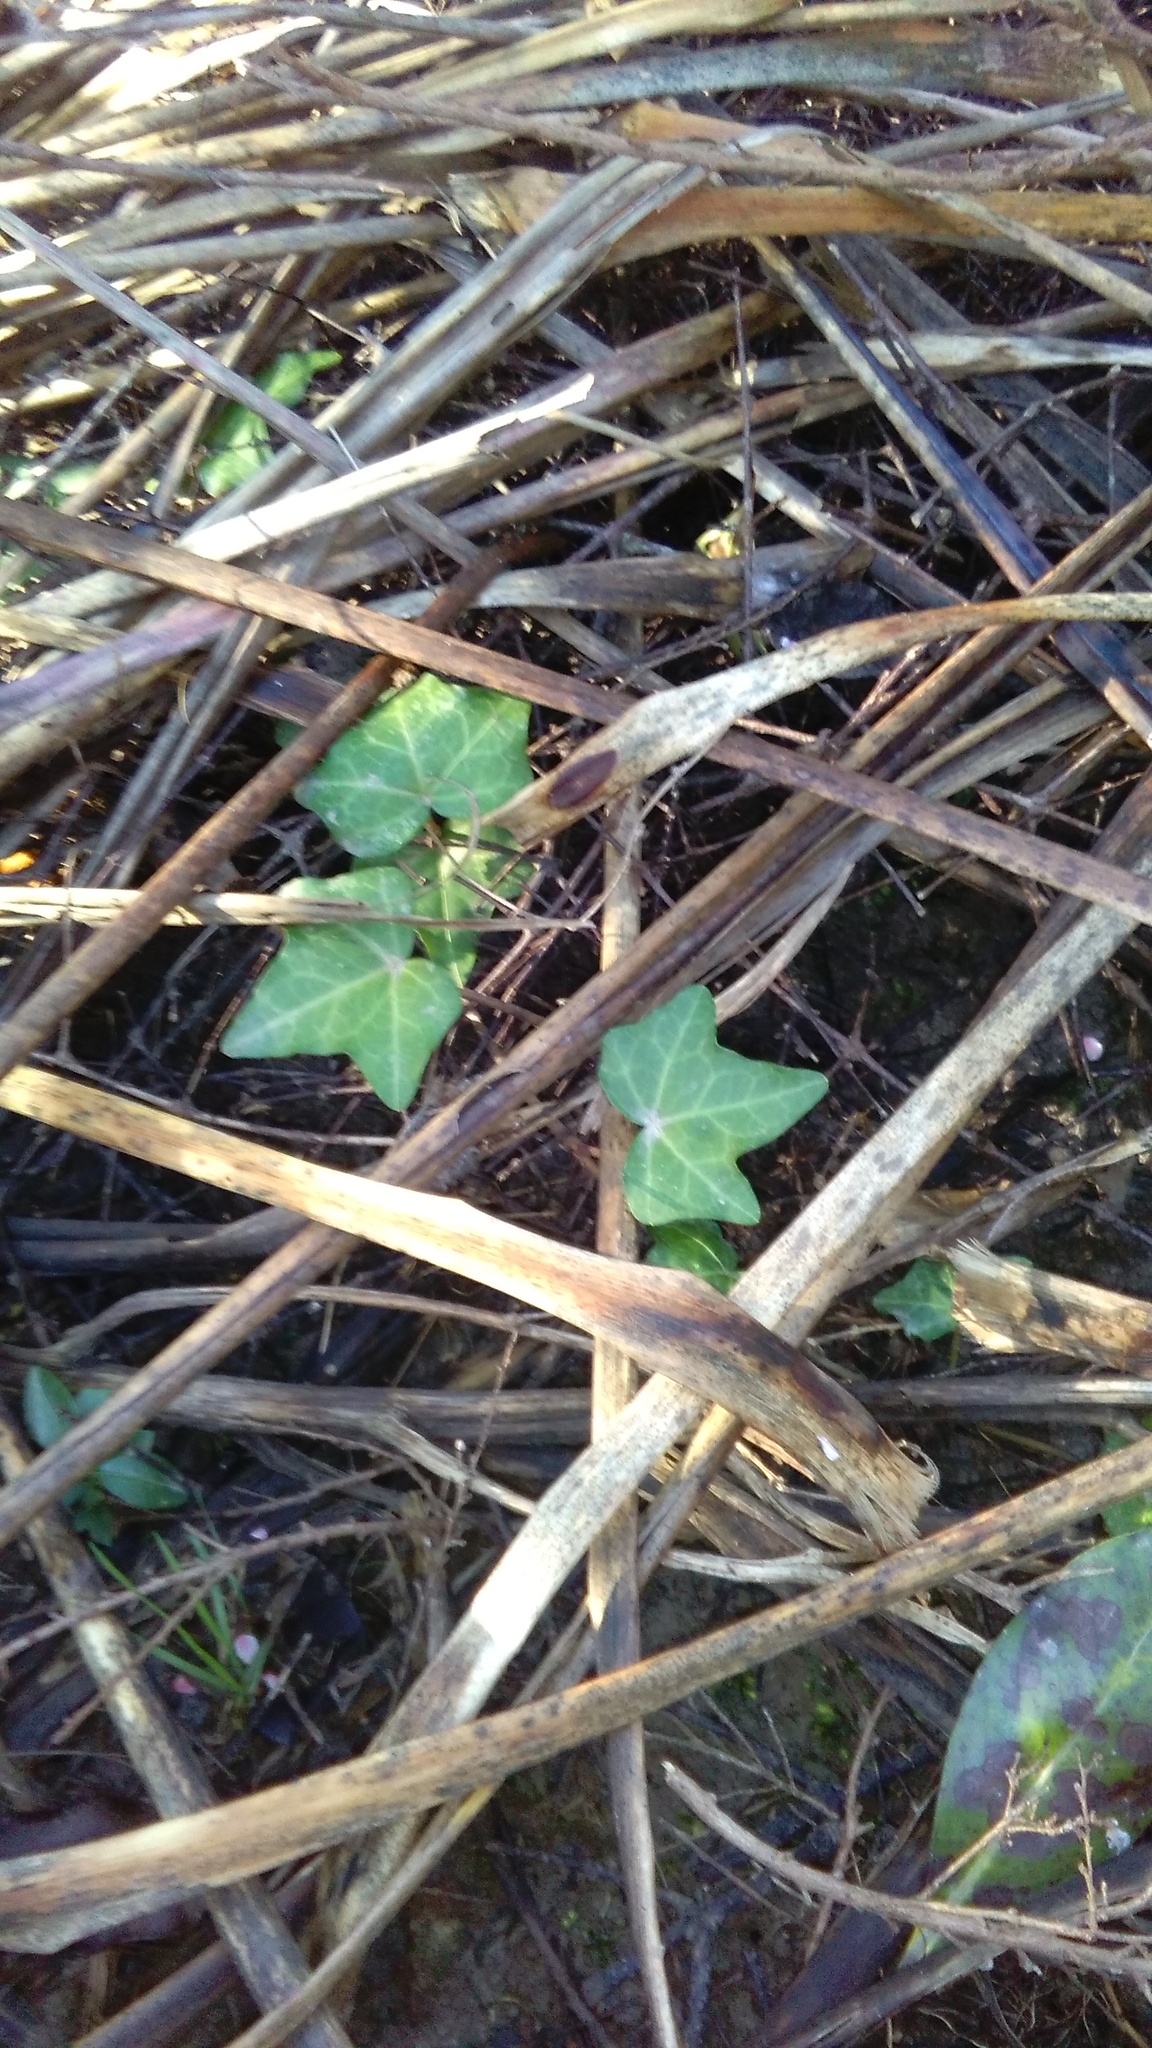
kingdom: Plantae
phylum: Tracheophyta
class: Magnoliopsida
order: Apiales
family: Araliaceae
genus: Hedera
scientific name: Hedera helix
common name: Ivy
